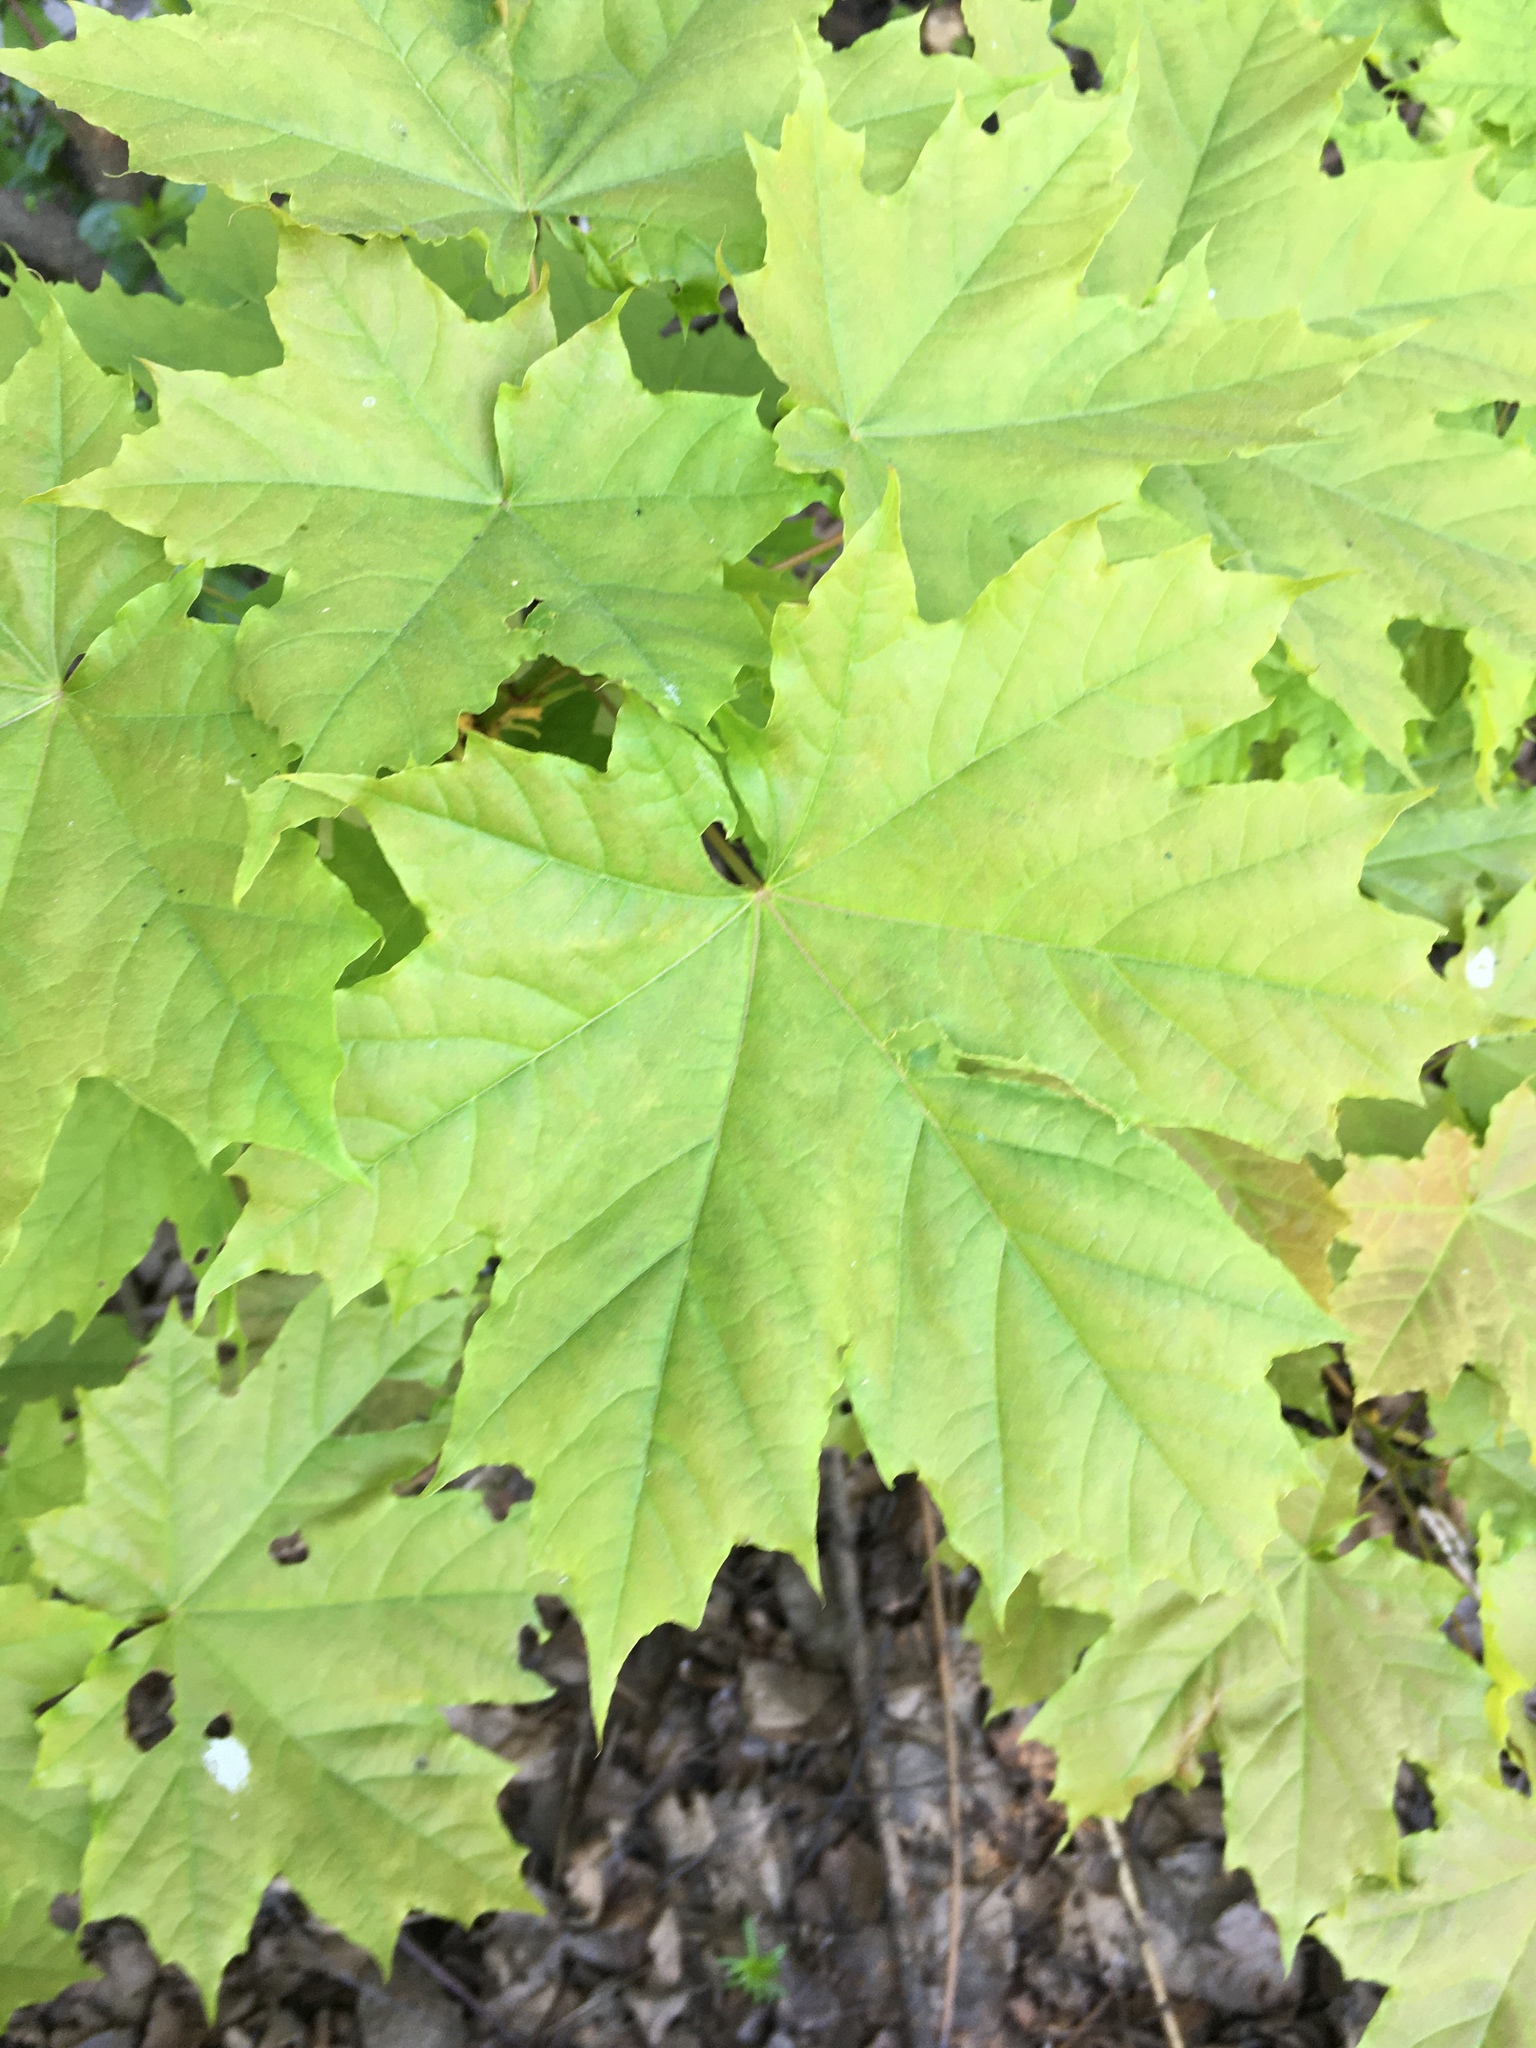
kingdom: Plantae
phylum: Tracheophyta
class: Magnoliopsida
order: Sapindales
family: Sapindaceae
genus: Acer
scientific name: Acer platanoides
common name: Norway maple
